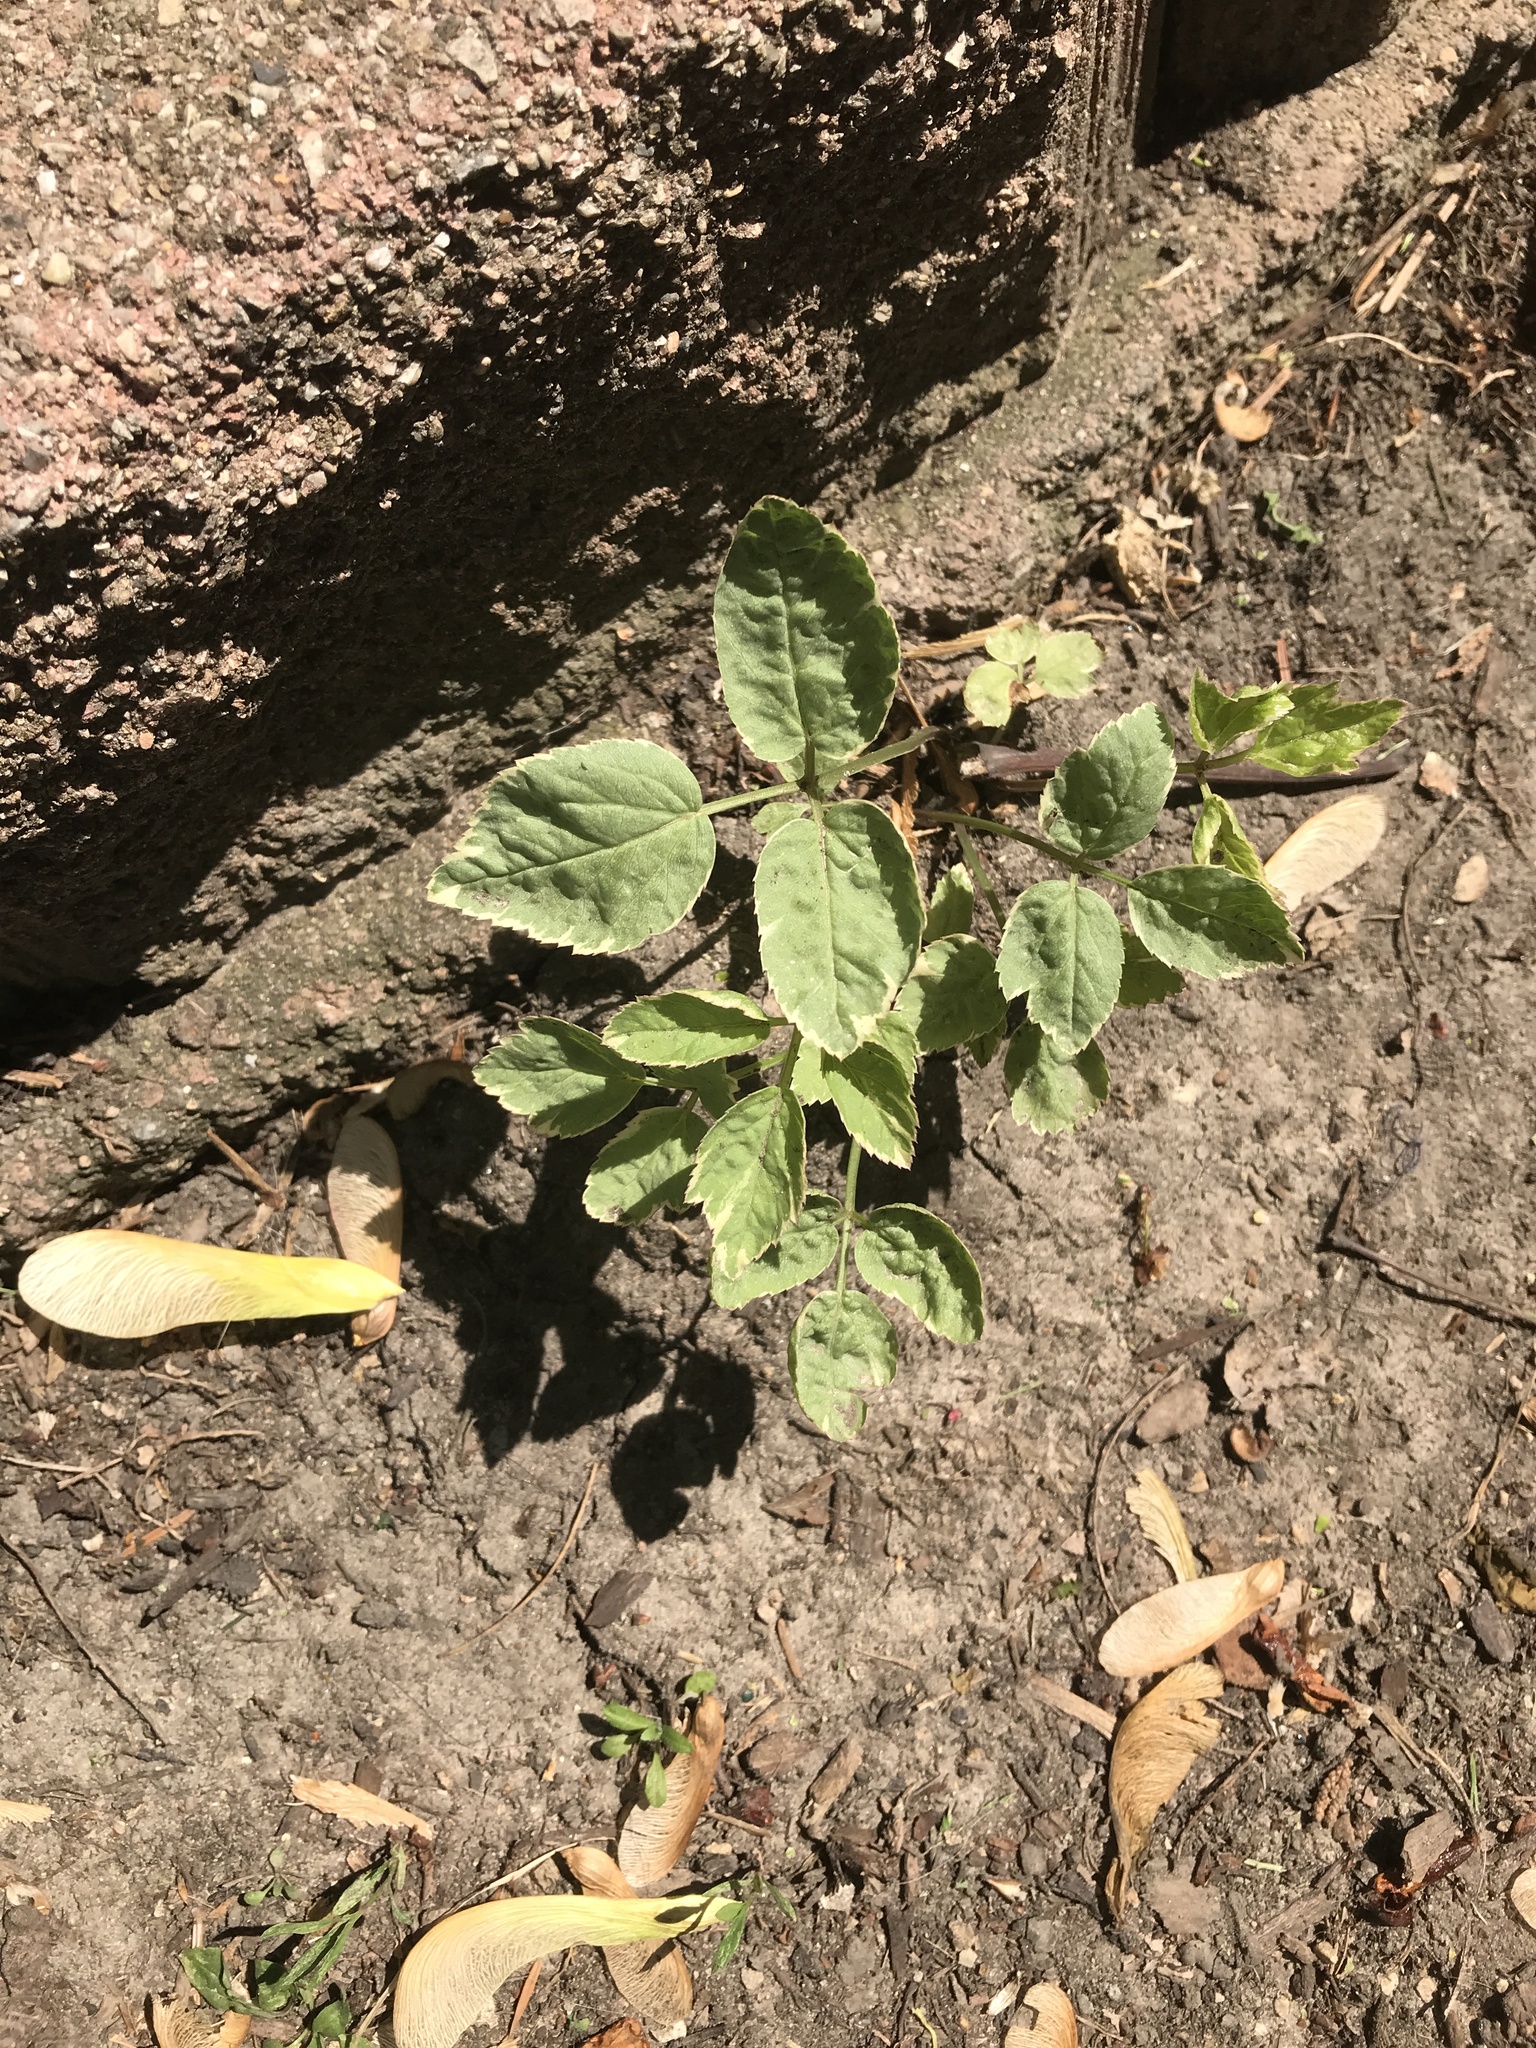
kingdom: Plantae
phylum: Tracheophyta
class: Magnoliopsida
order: Apiales
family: Apiaceae
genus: Aegopodium
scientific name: Aegopodium podagraria
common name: Ground-elder
